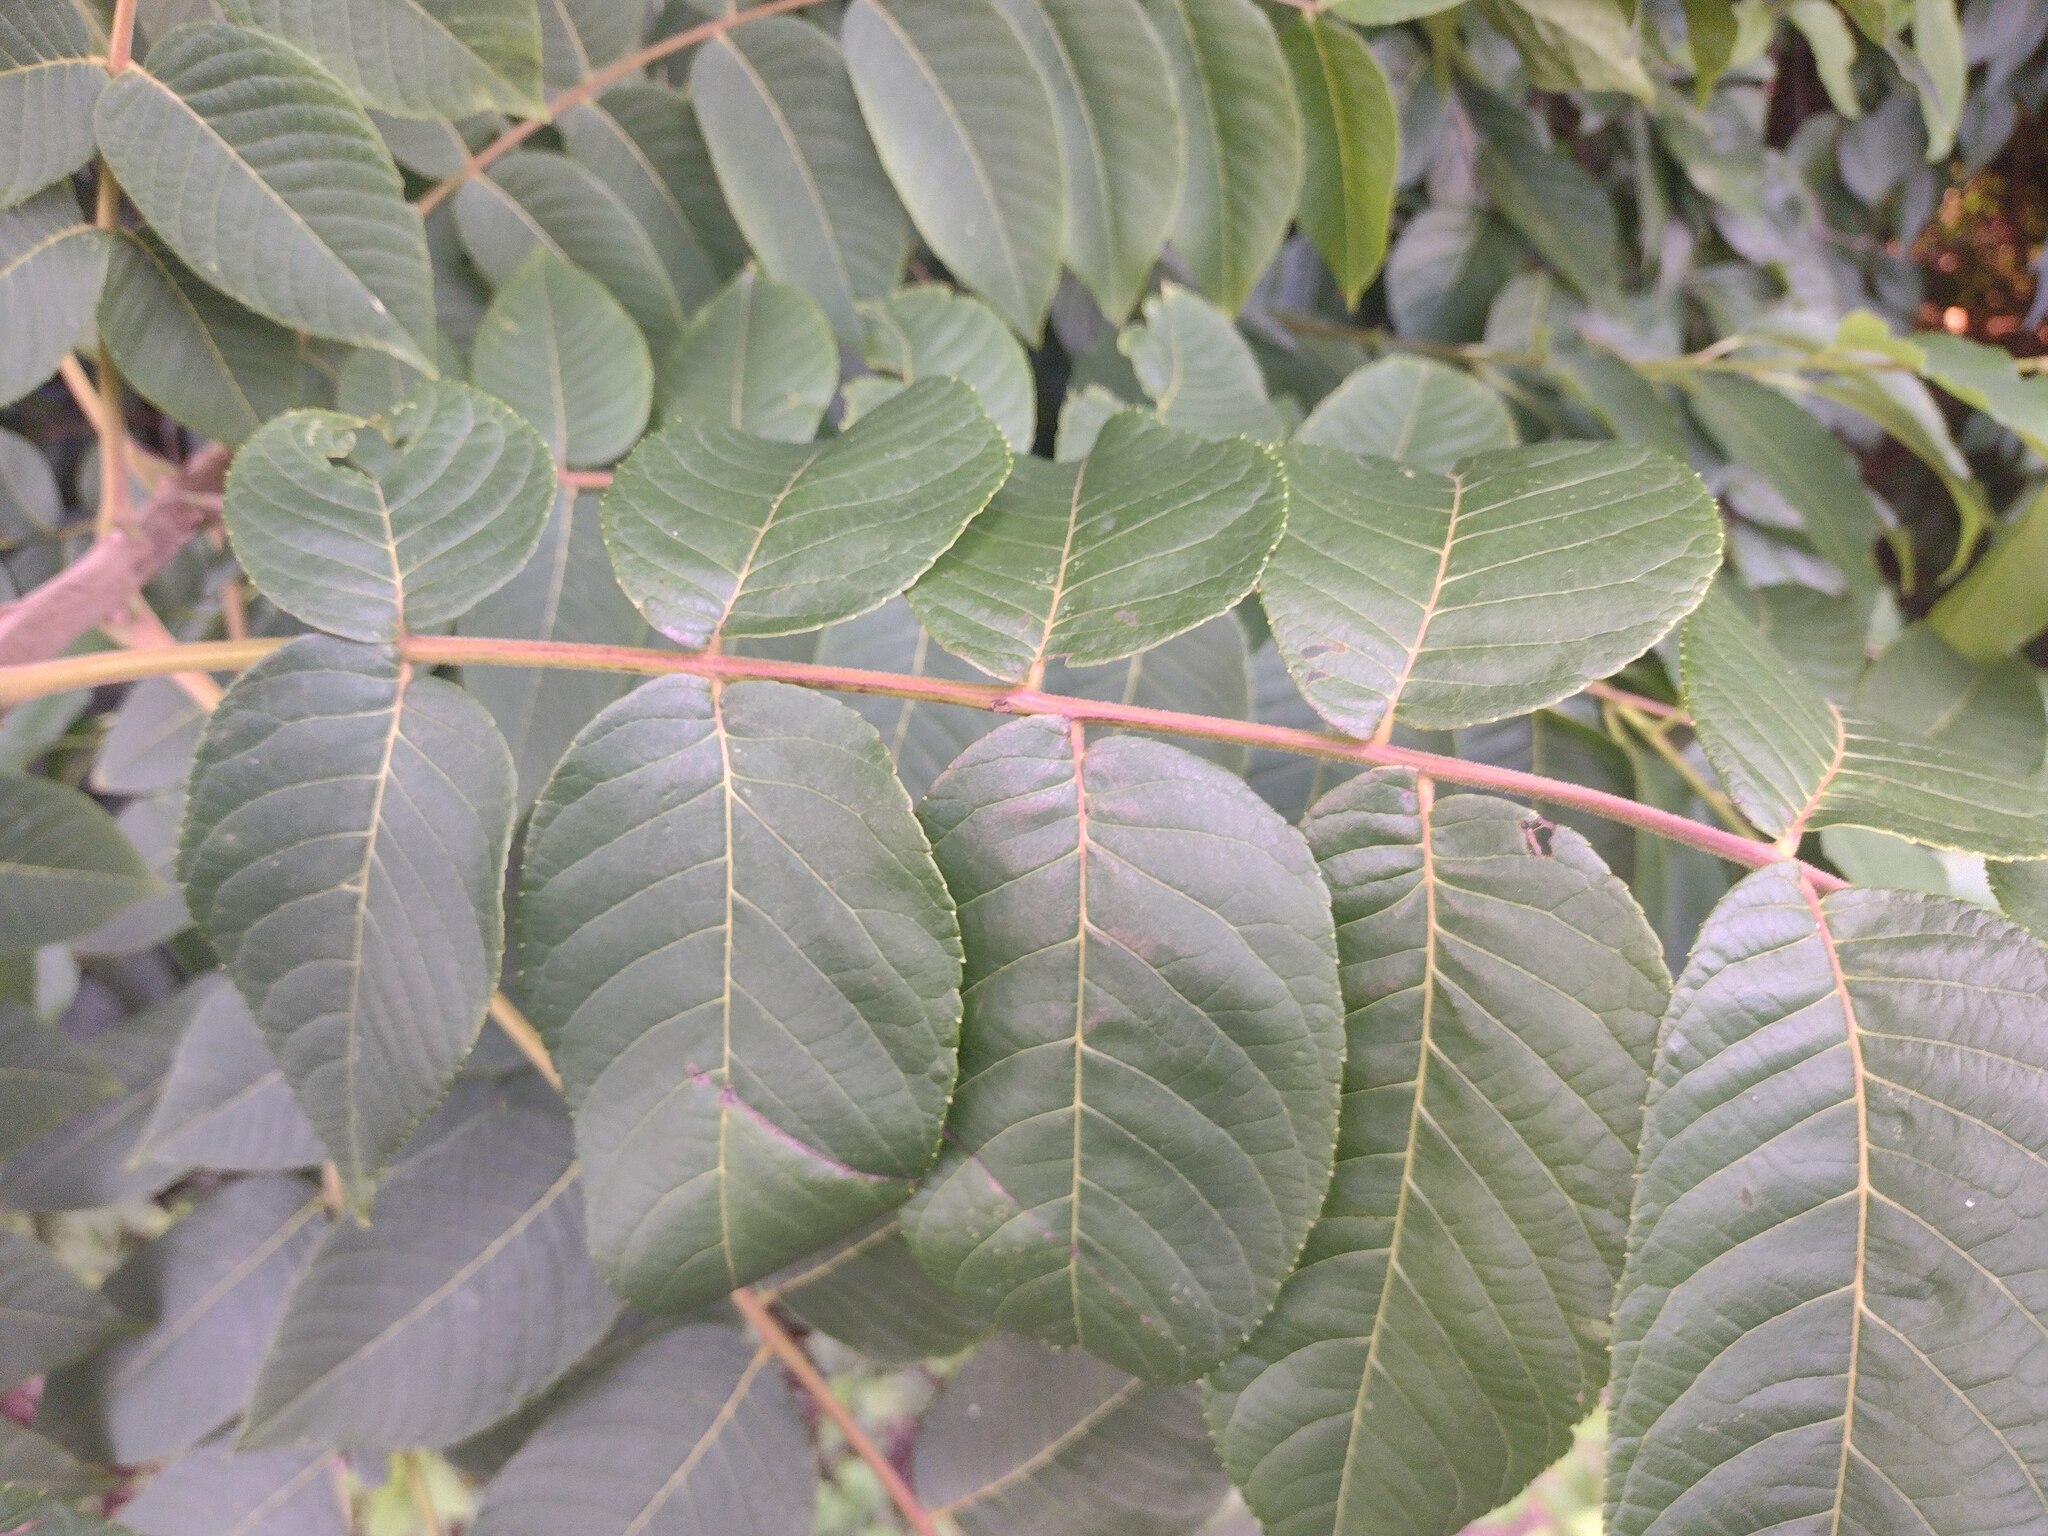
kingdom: Plantae
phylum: Tracheophyta
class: Magnoliopsida
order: Fagales
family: Juglandaceae
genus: Juglans
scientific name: Juglans nigra
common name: Black walnut
